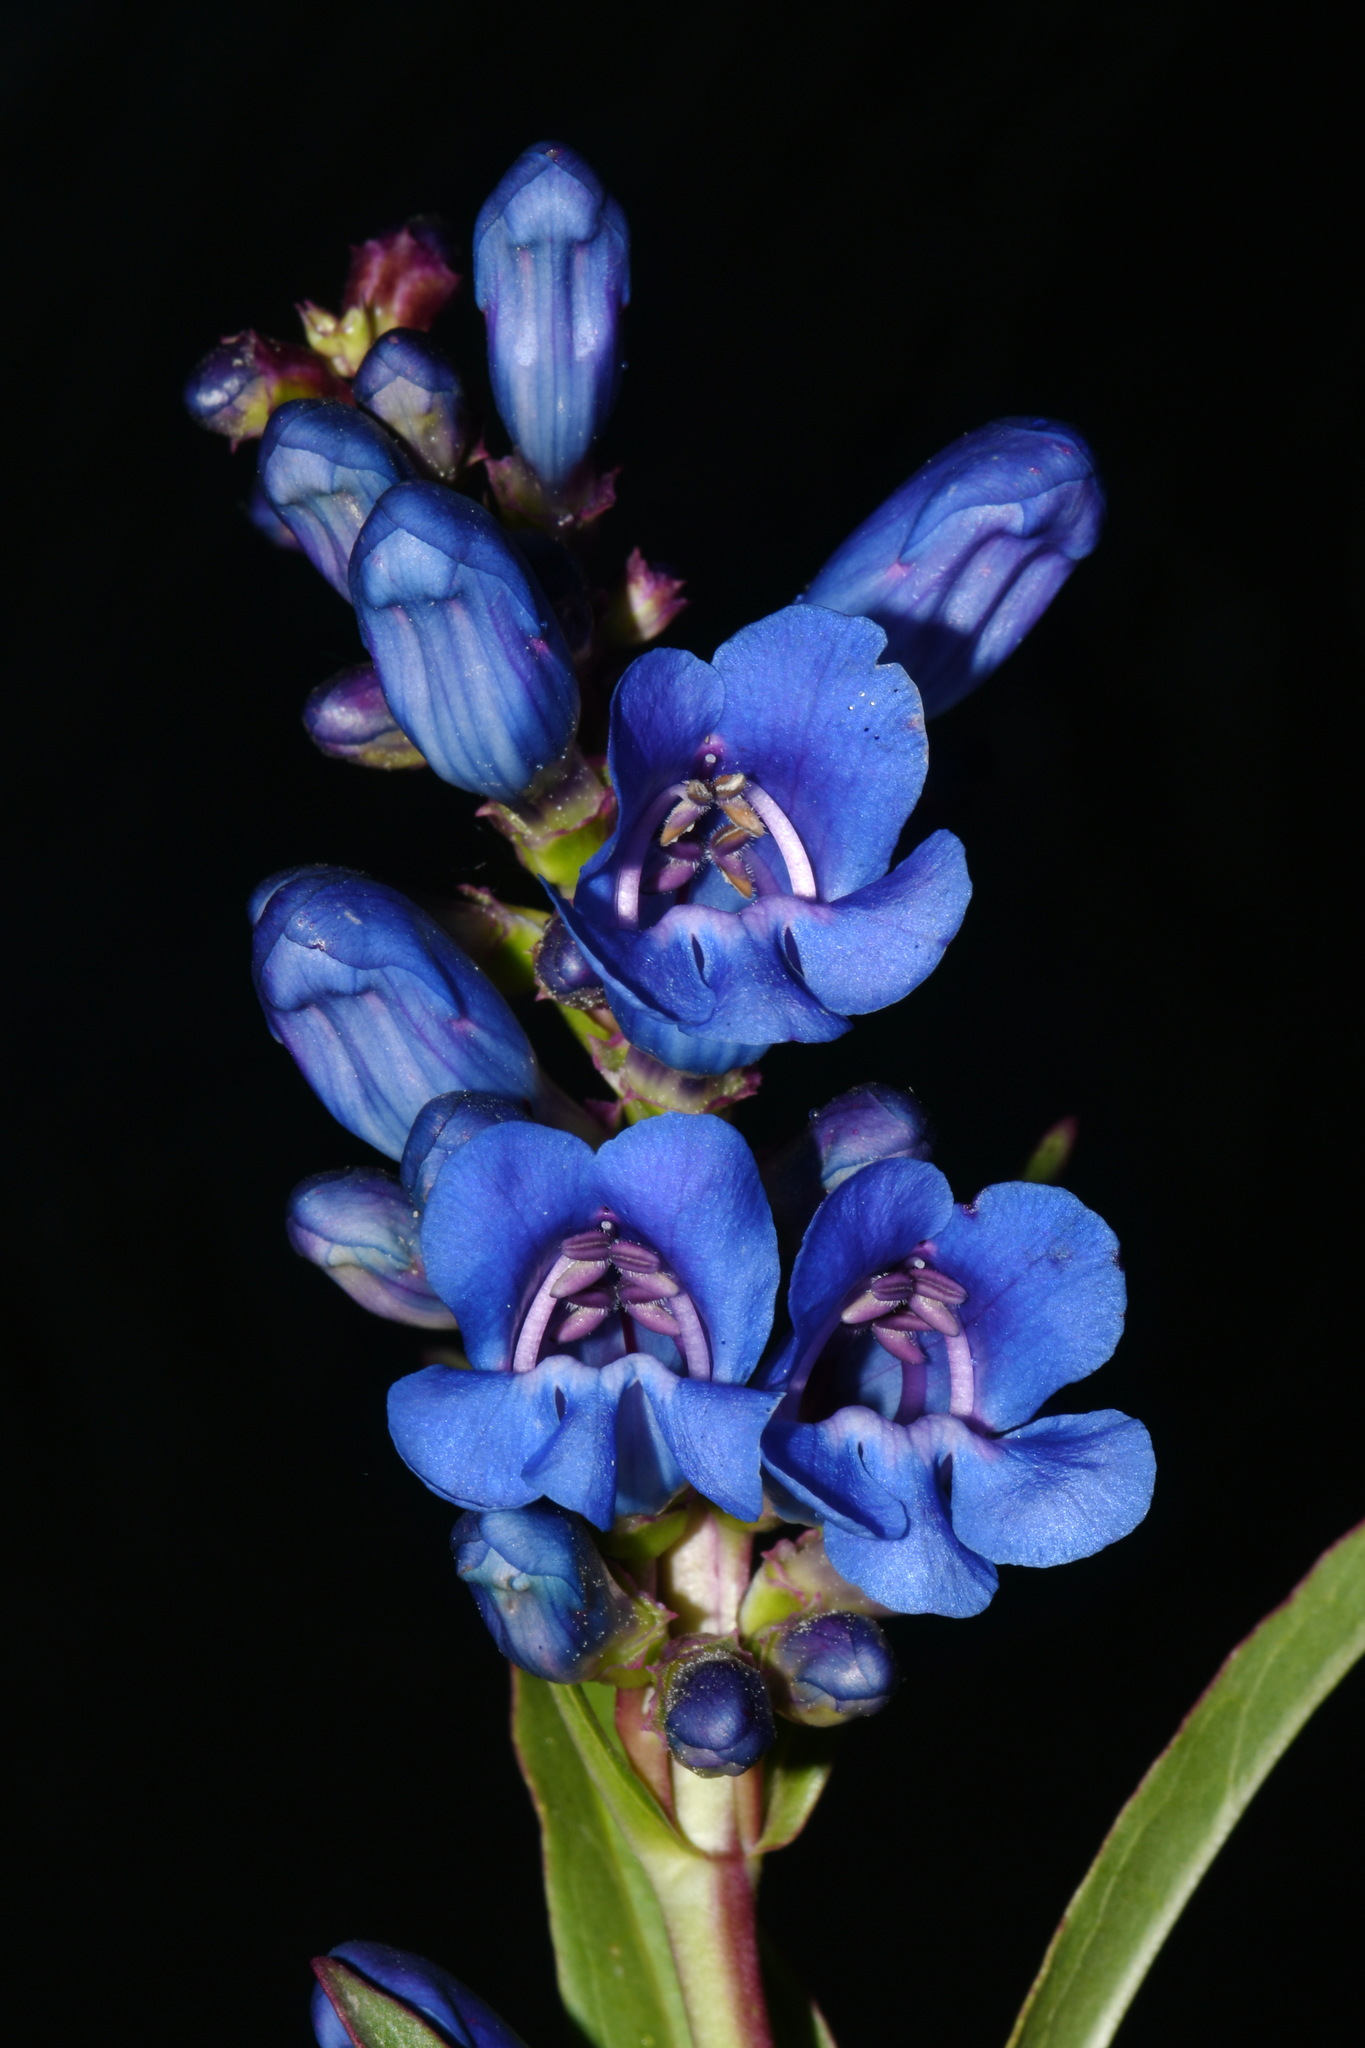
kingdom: Plantae
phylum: Tracheophyta
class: Magnoliopsida
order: Lamiales
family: Plantaginaceae
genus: Penstemon
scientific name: Penstemon cyaneus
